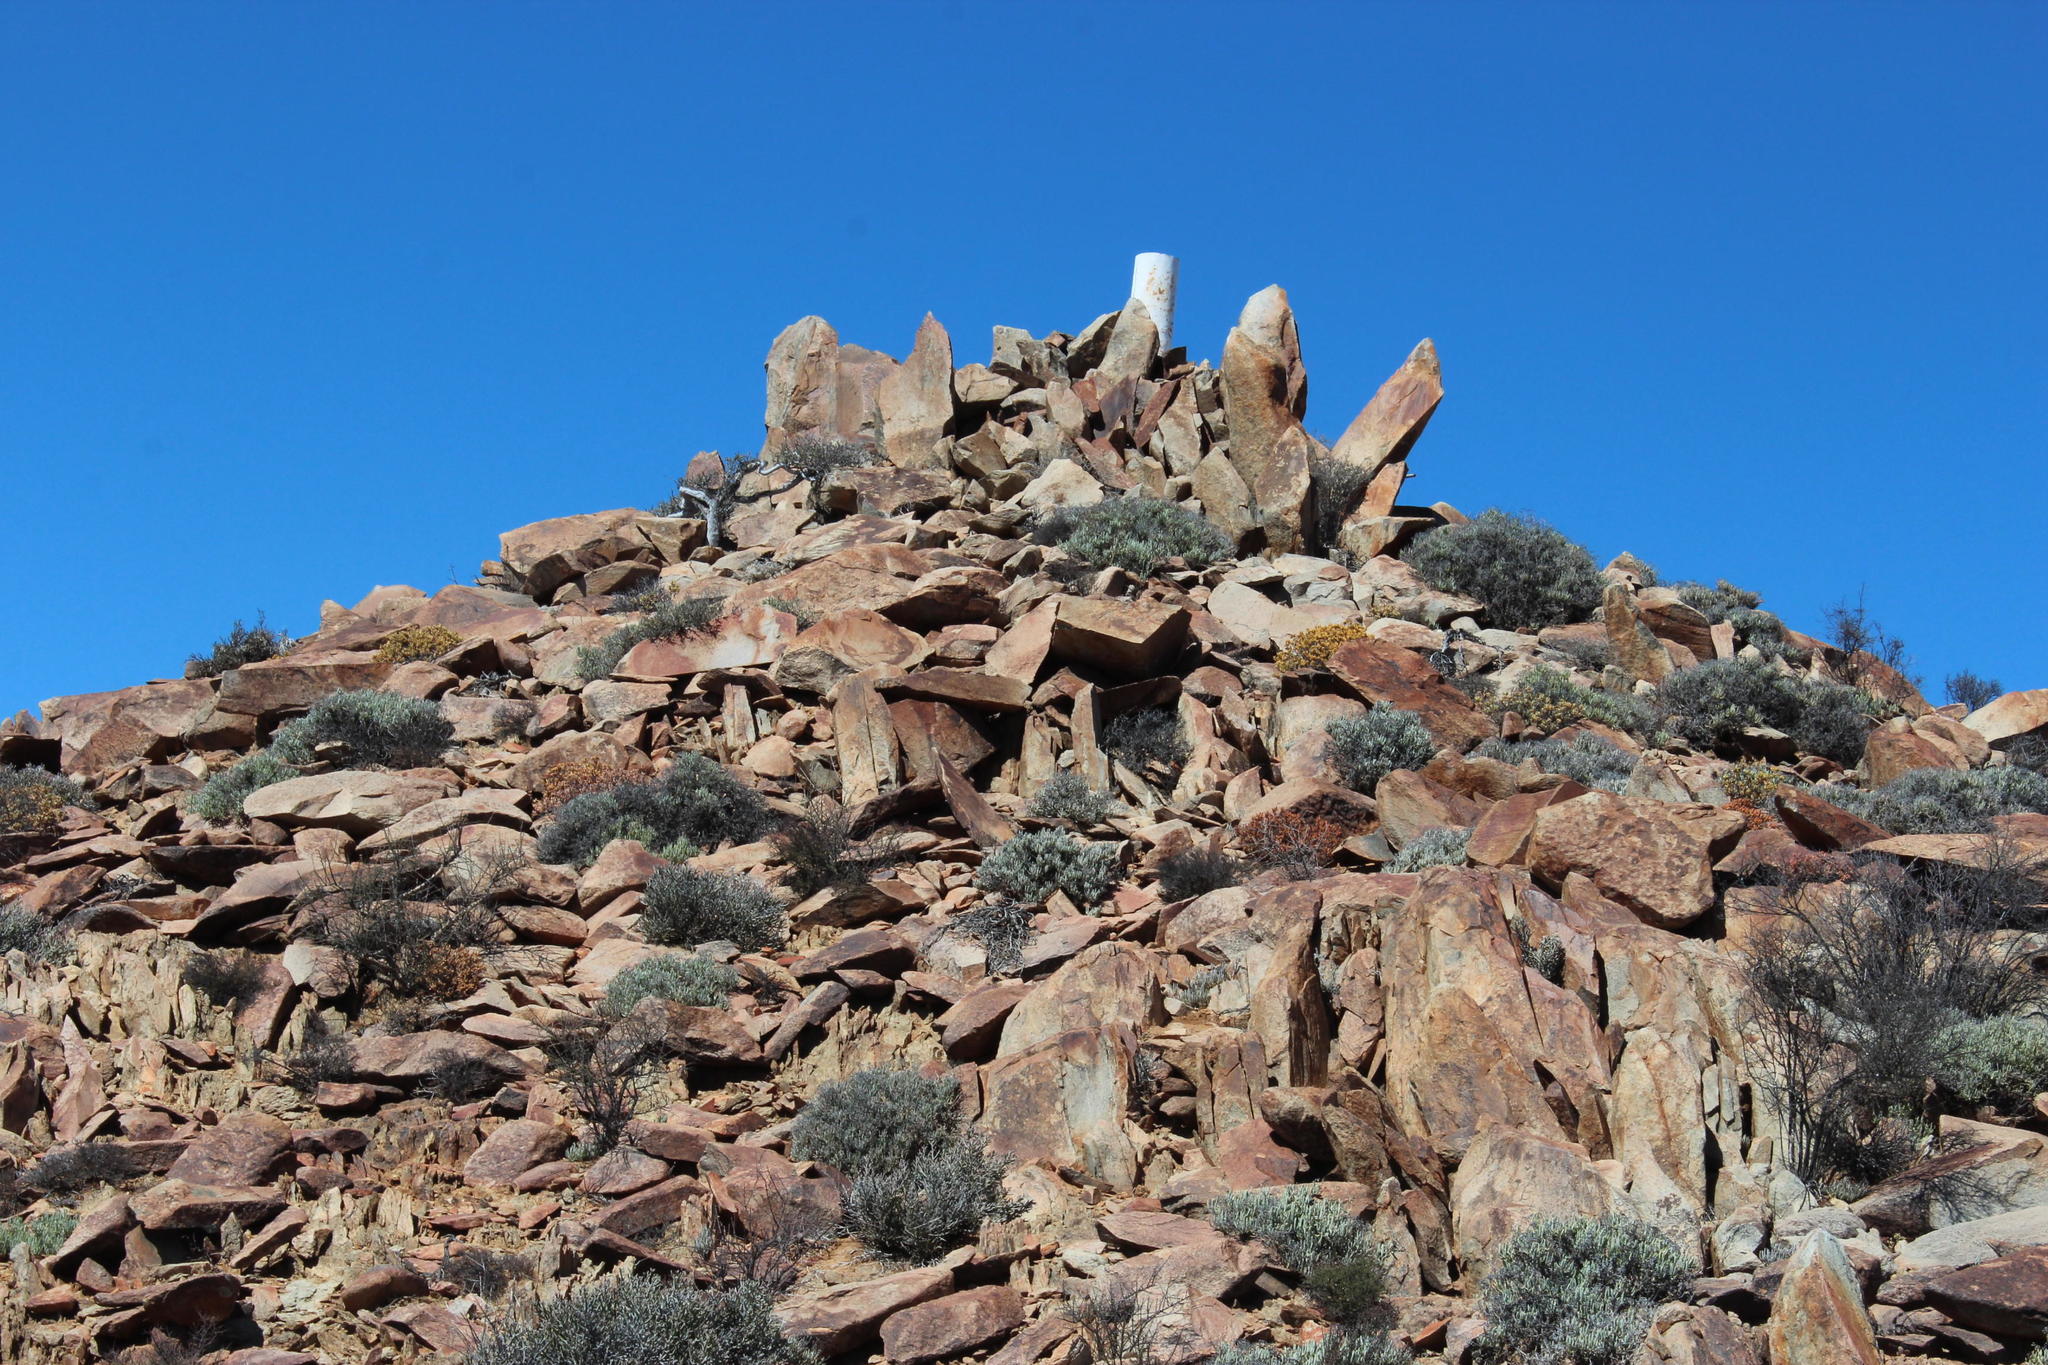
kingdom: Plantae
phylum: Tracheophyta
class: Magnoliopsida
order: Caryophyllales
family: Aizoaceae
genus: Ruschia
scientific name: Ruschia fugitans
